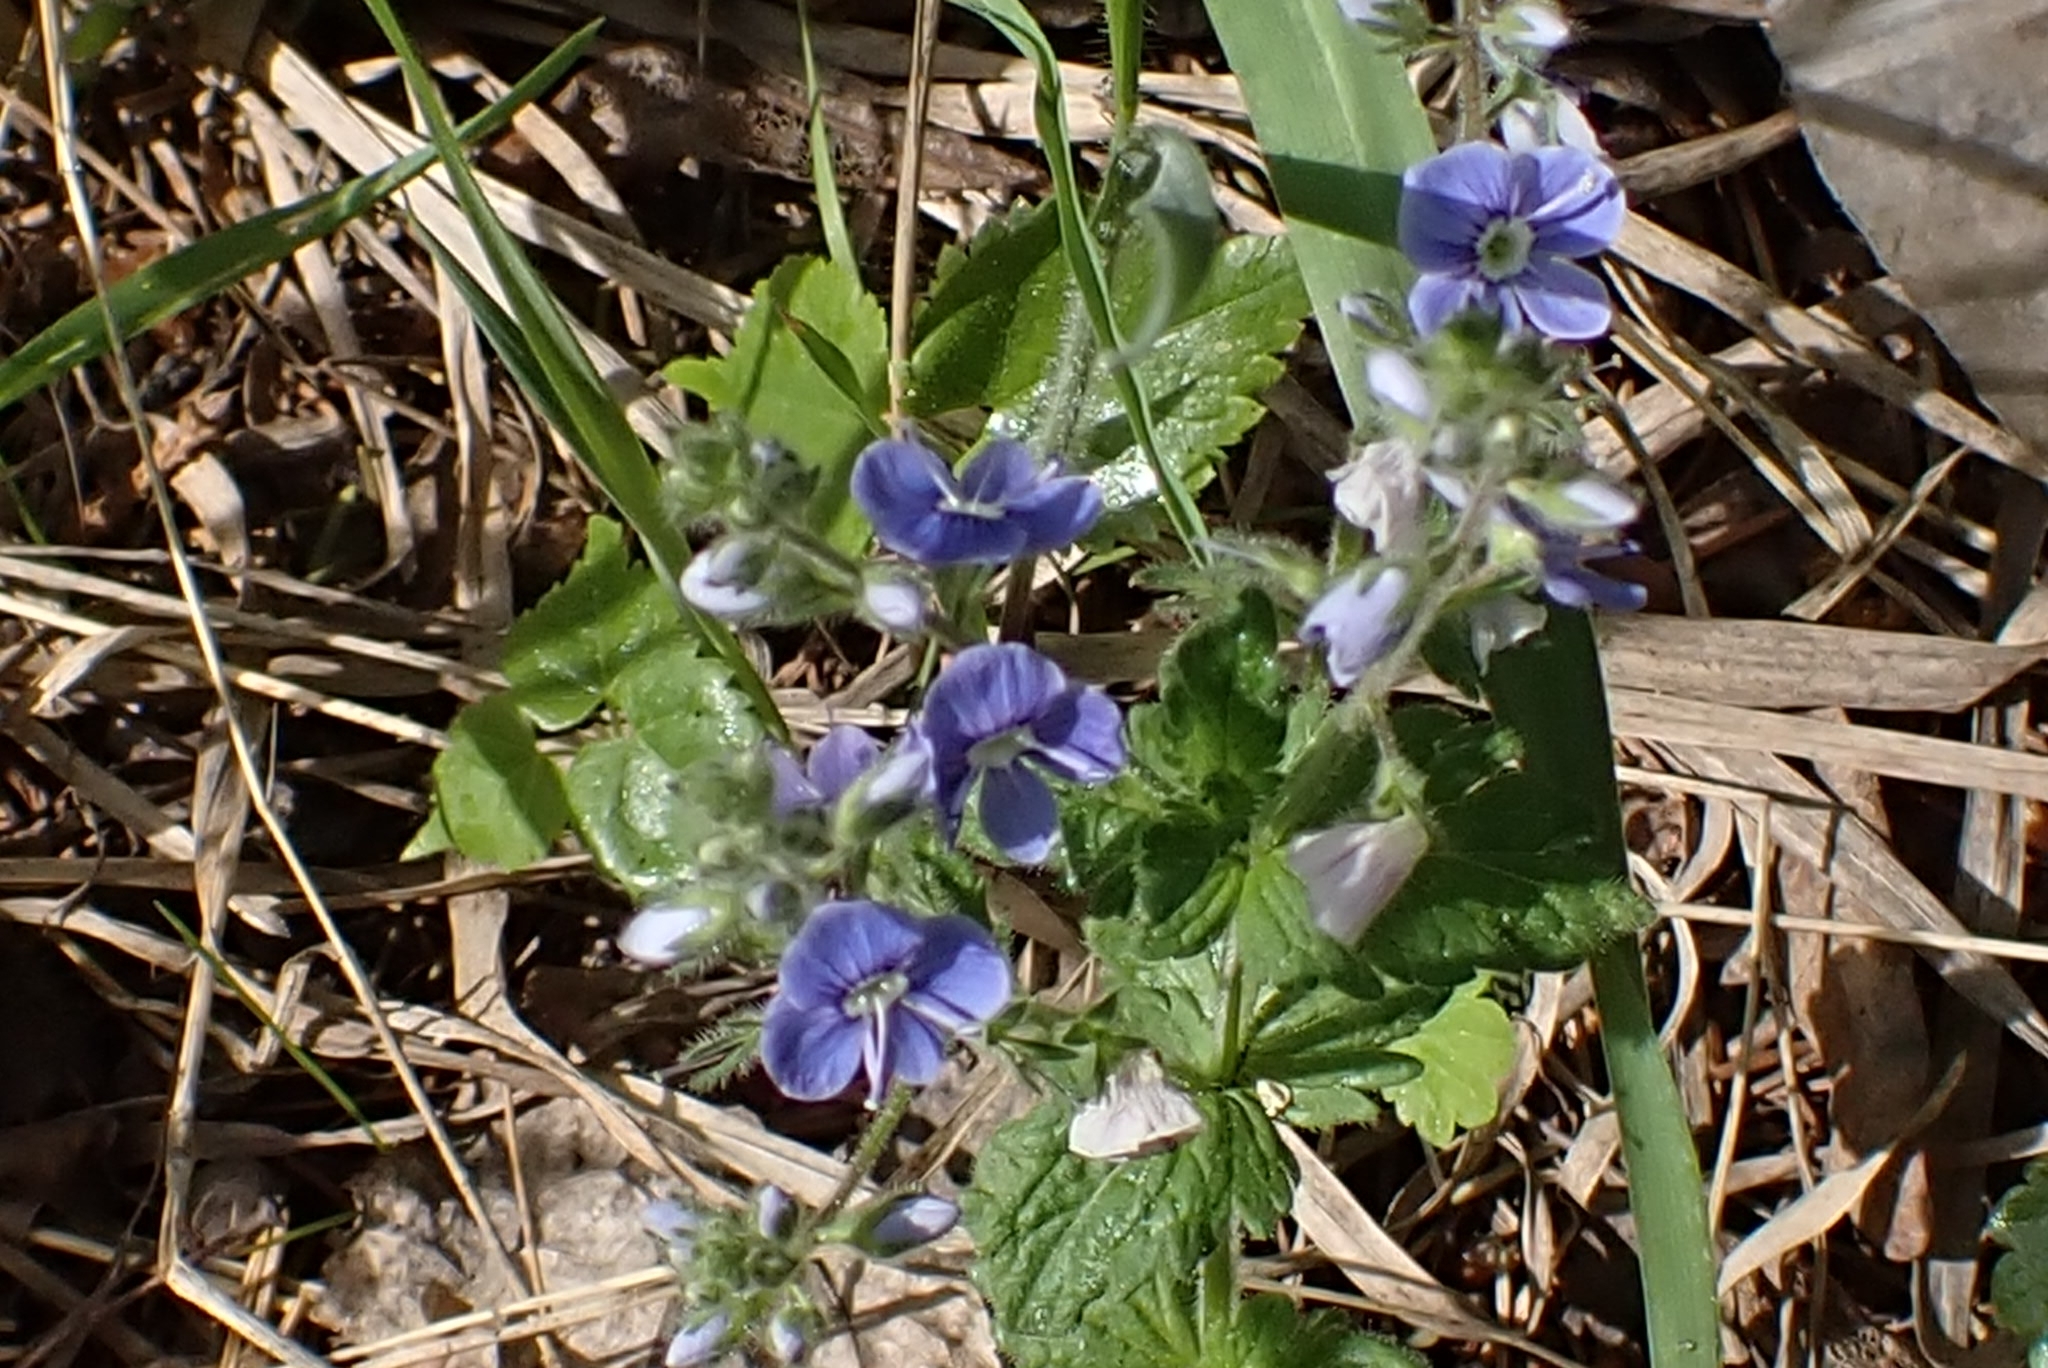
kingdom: Plantae
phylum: Tracheophyta
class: Magnoliopsida
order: Lamiales
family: Plantaginaceae
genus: Veronica
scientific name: Veronica chamaedrys
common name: Germander speedwell
